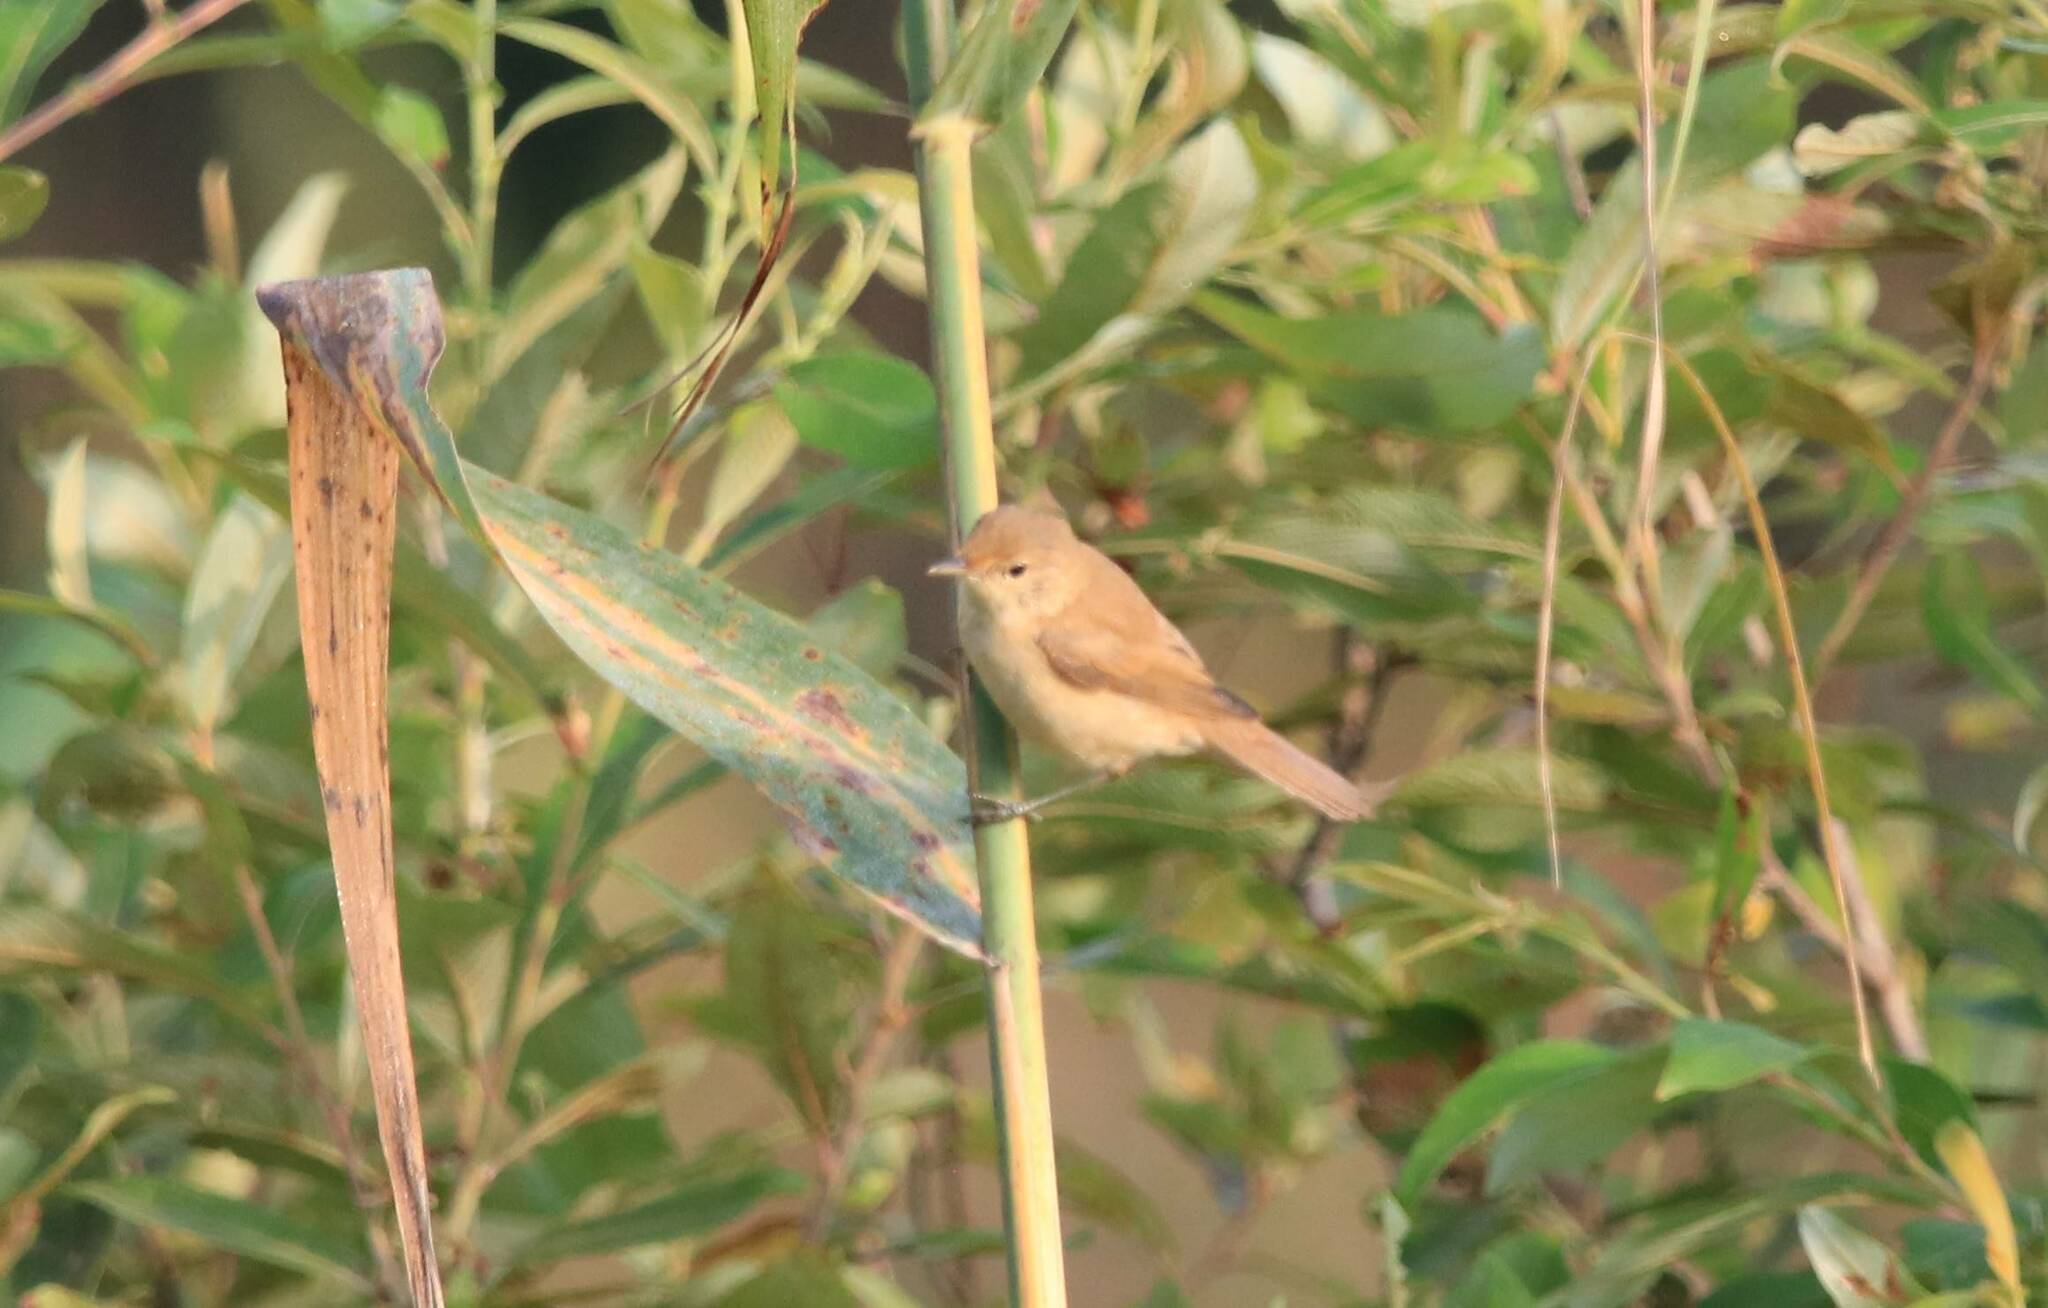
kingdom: Animalia
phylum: Chordata
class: Aves
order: Passeriformes
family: Acrocephalidae
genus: Acrocephalus
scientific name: Acrocephalus scirpaceus
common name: Eurasian reed warbler
